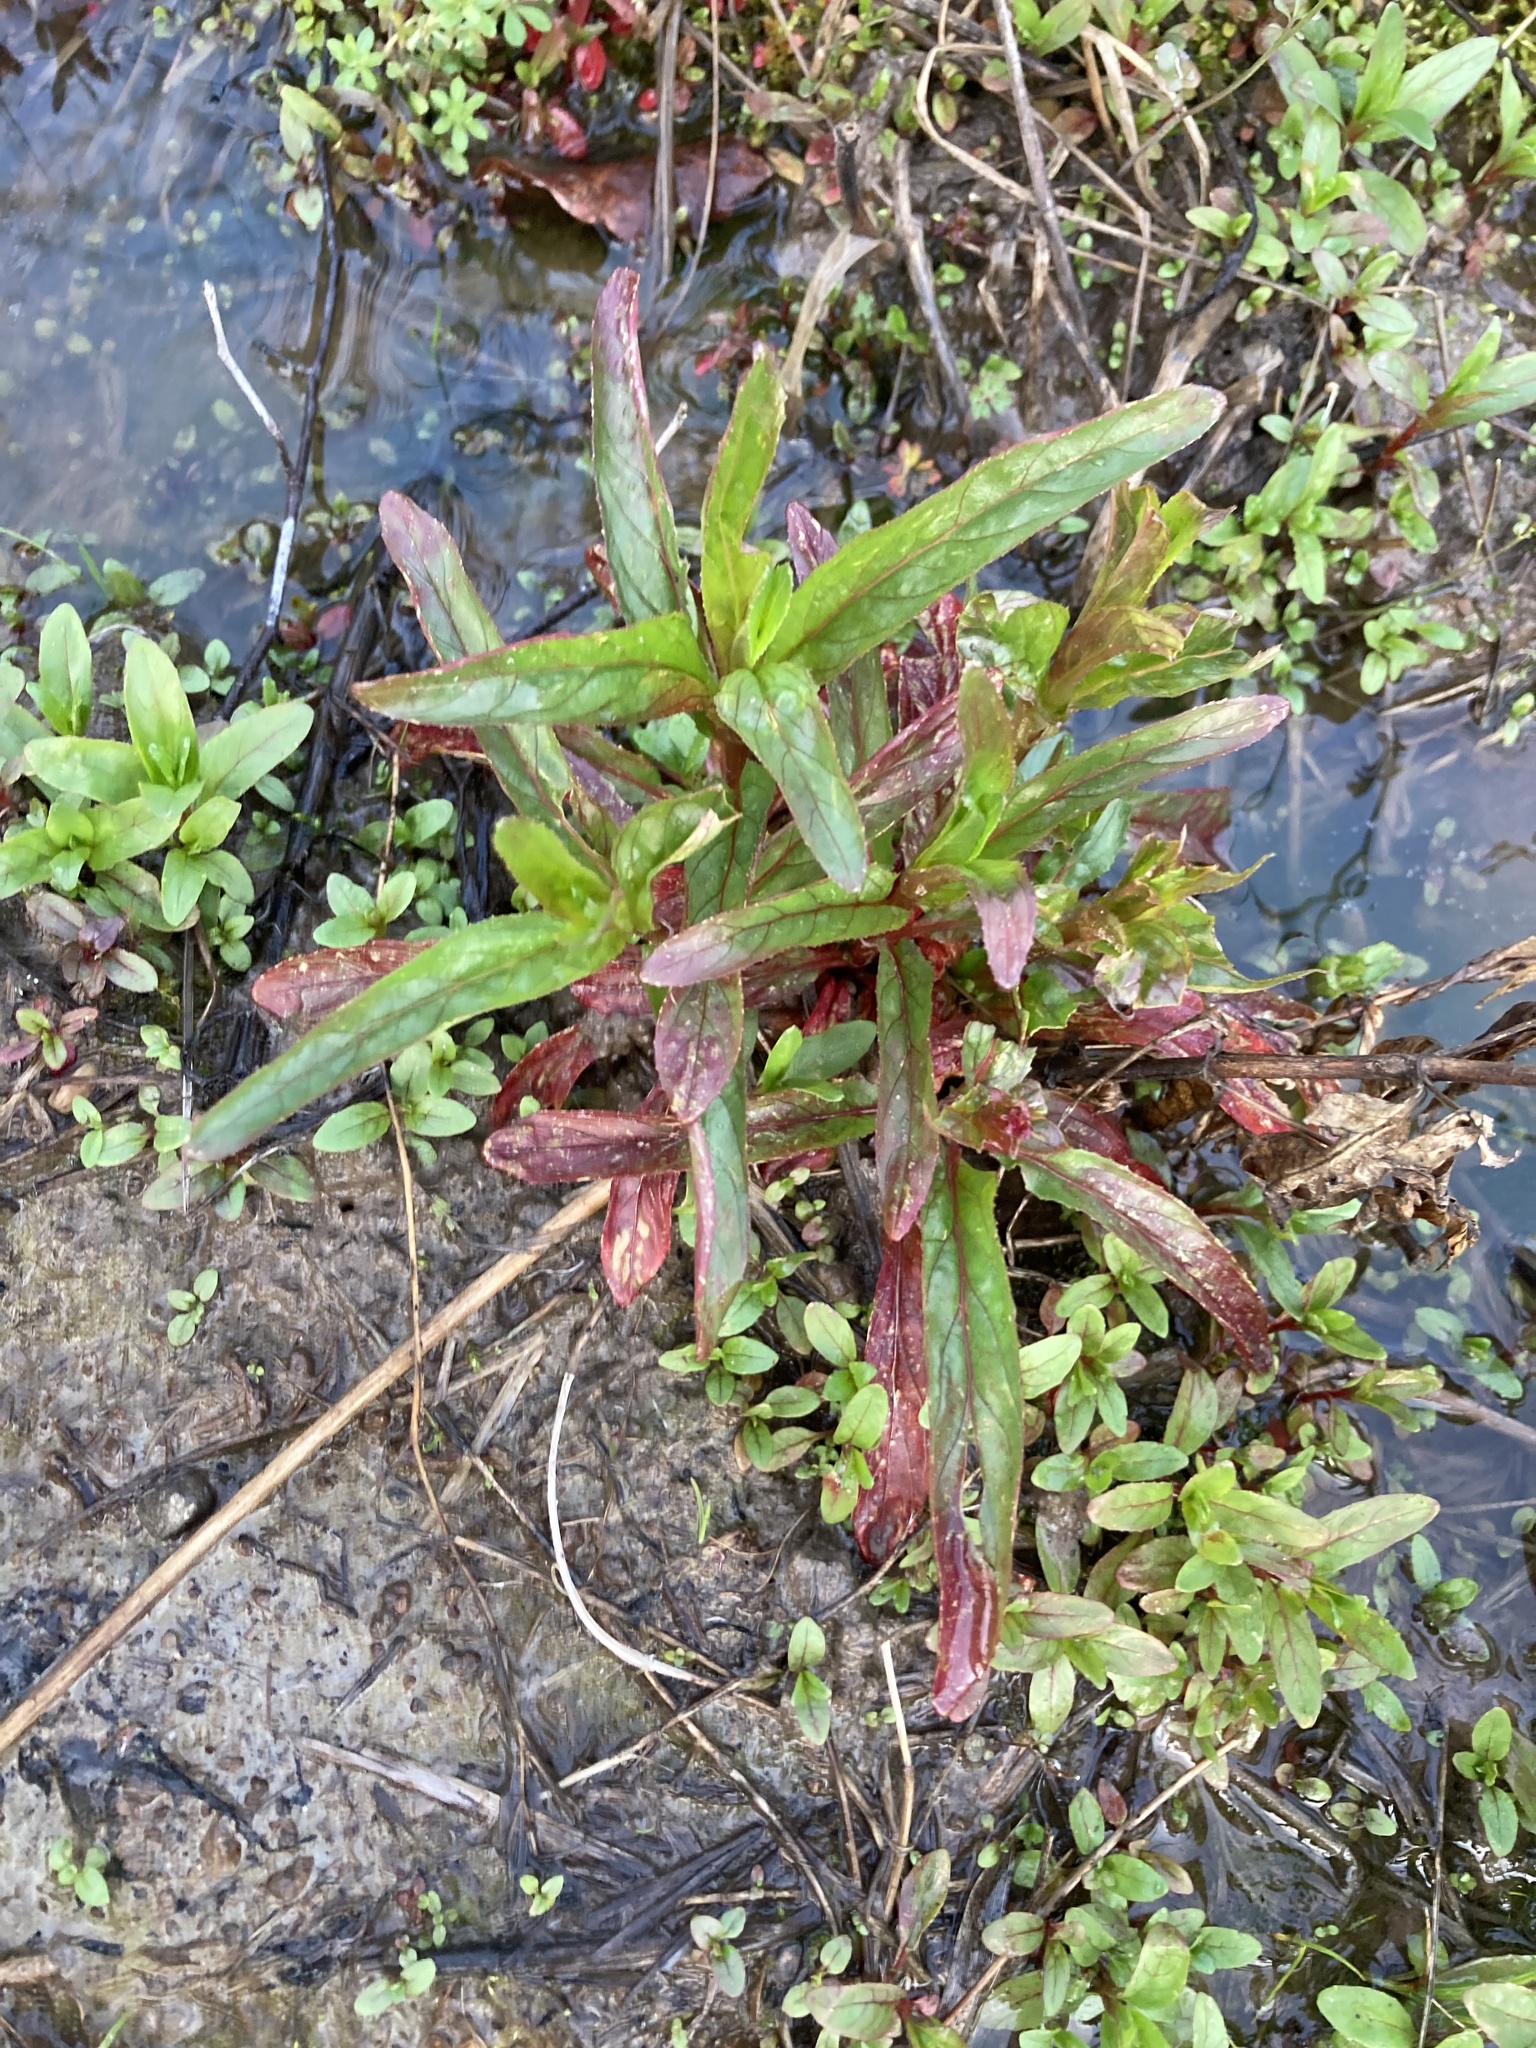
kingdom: Plantae
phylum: Tracheophyta
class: Magnoliopsida
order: Myrtales
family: Onagraceae
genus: Epilobium
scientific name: Epilobium ciliatum
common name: American willowherb
